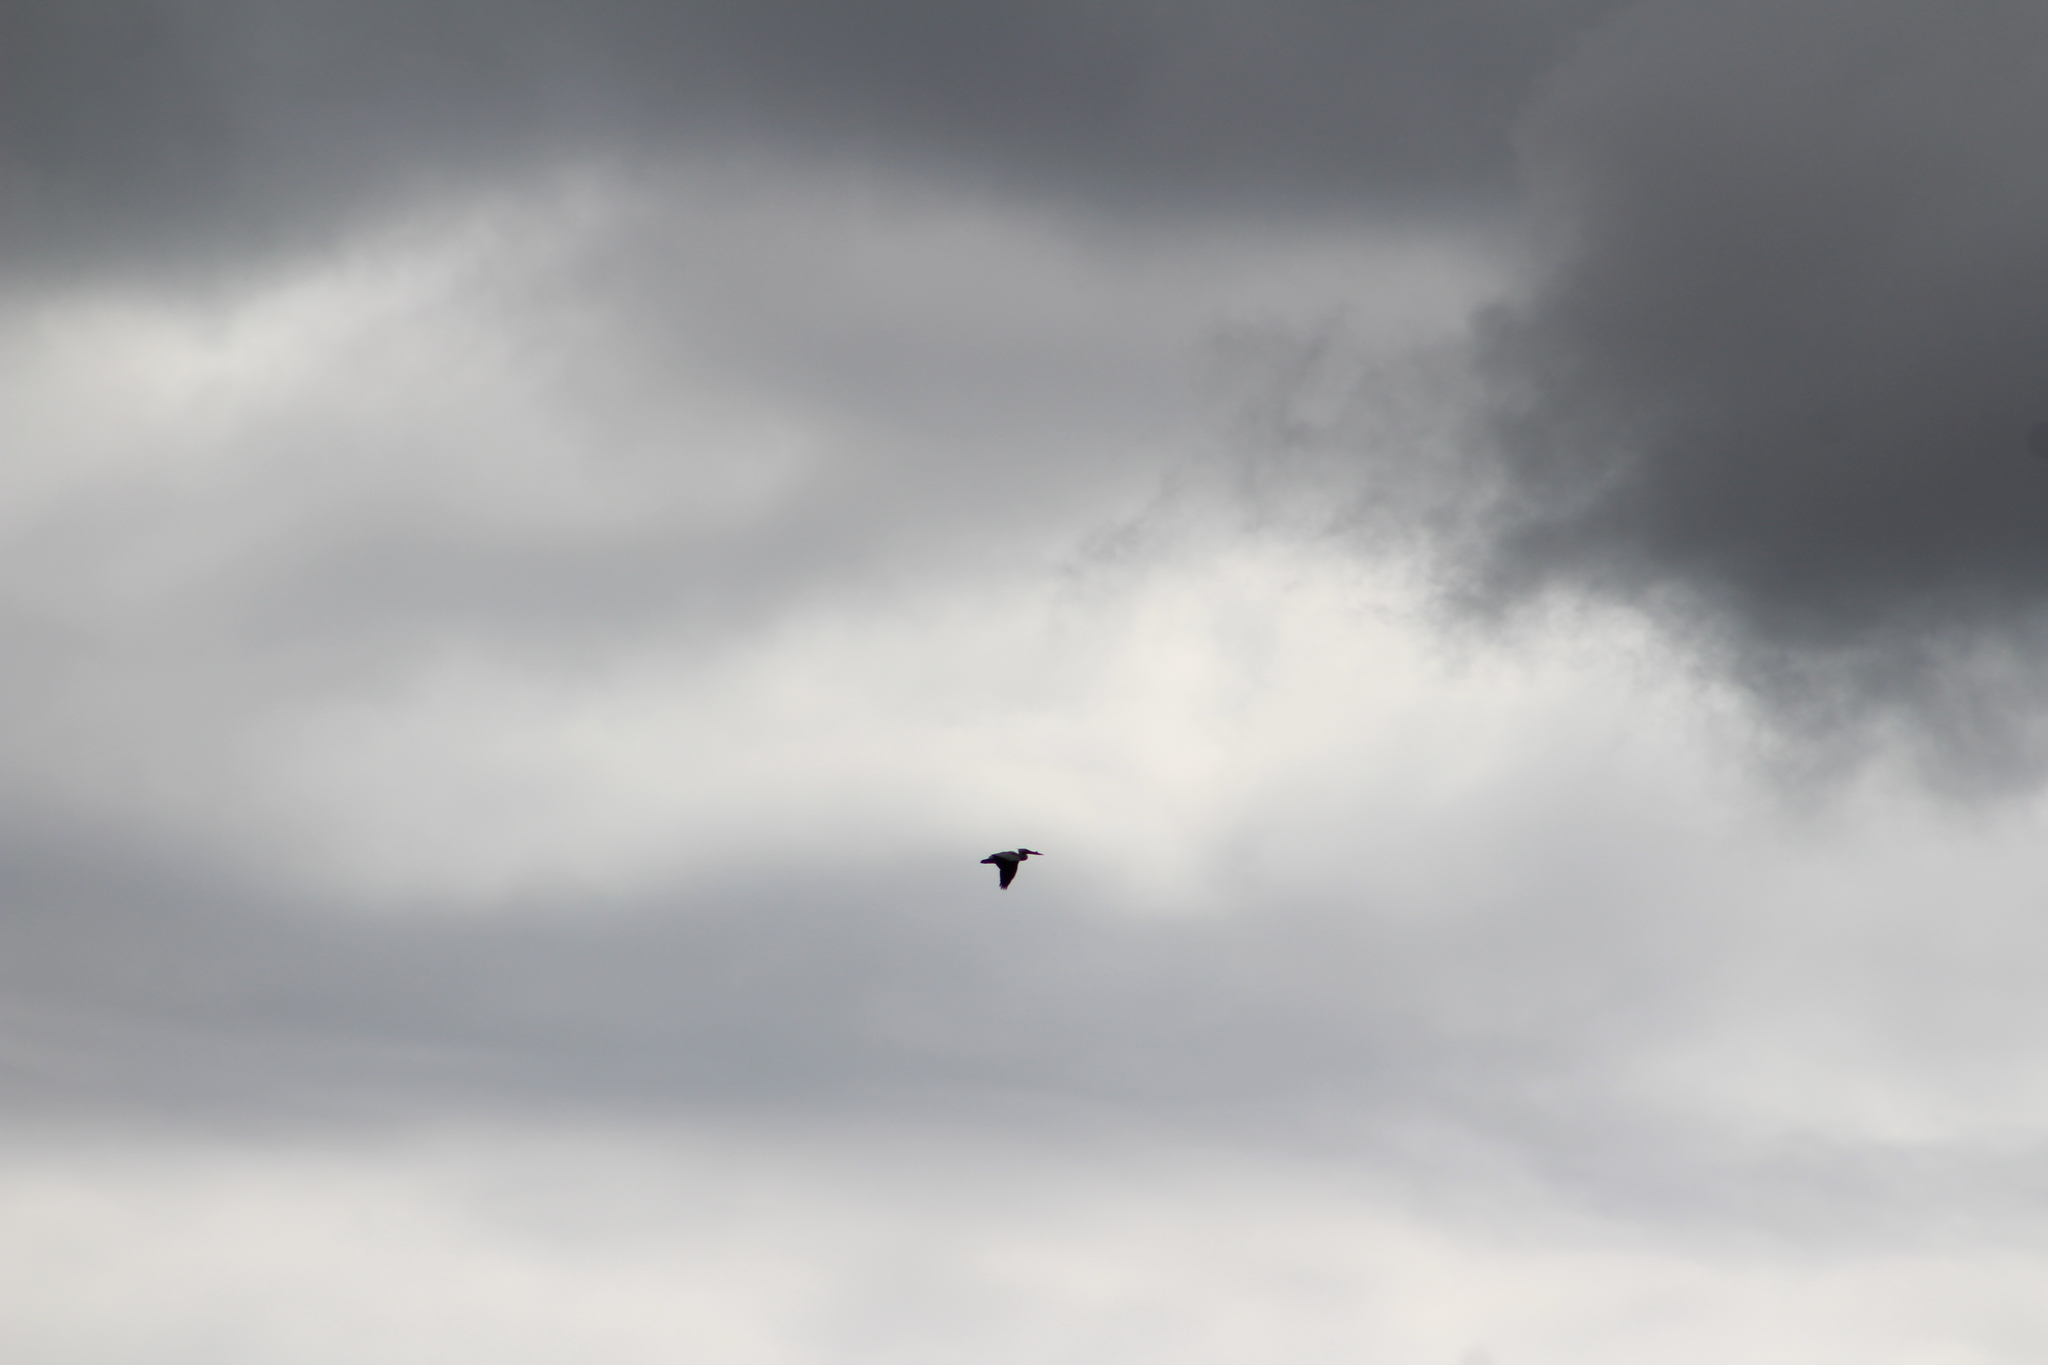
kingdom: Animalia
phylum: Chordata
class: Aves
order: Pelecaniformes
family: Pelecanidae
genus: Pelecanus
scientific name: Pelecanus erythrorhynchos
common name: American white pelican
